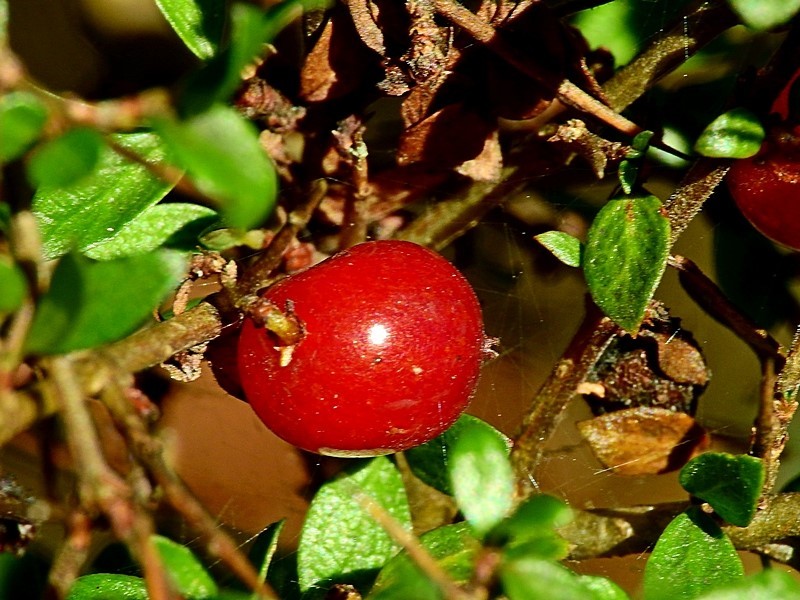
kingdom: Plantae
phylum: Tracheophyta
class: Magnoliopsida
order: Gentianales
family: Rubiaceae
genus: Coprosma
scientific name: Coprosma quadrifida
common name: Prickly currantbush
